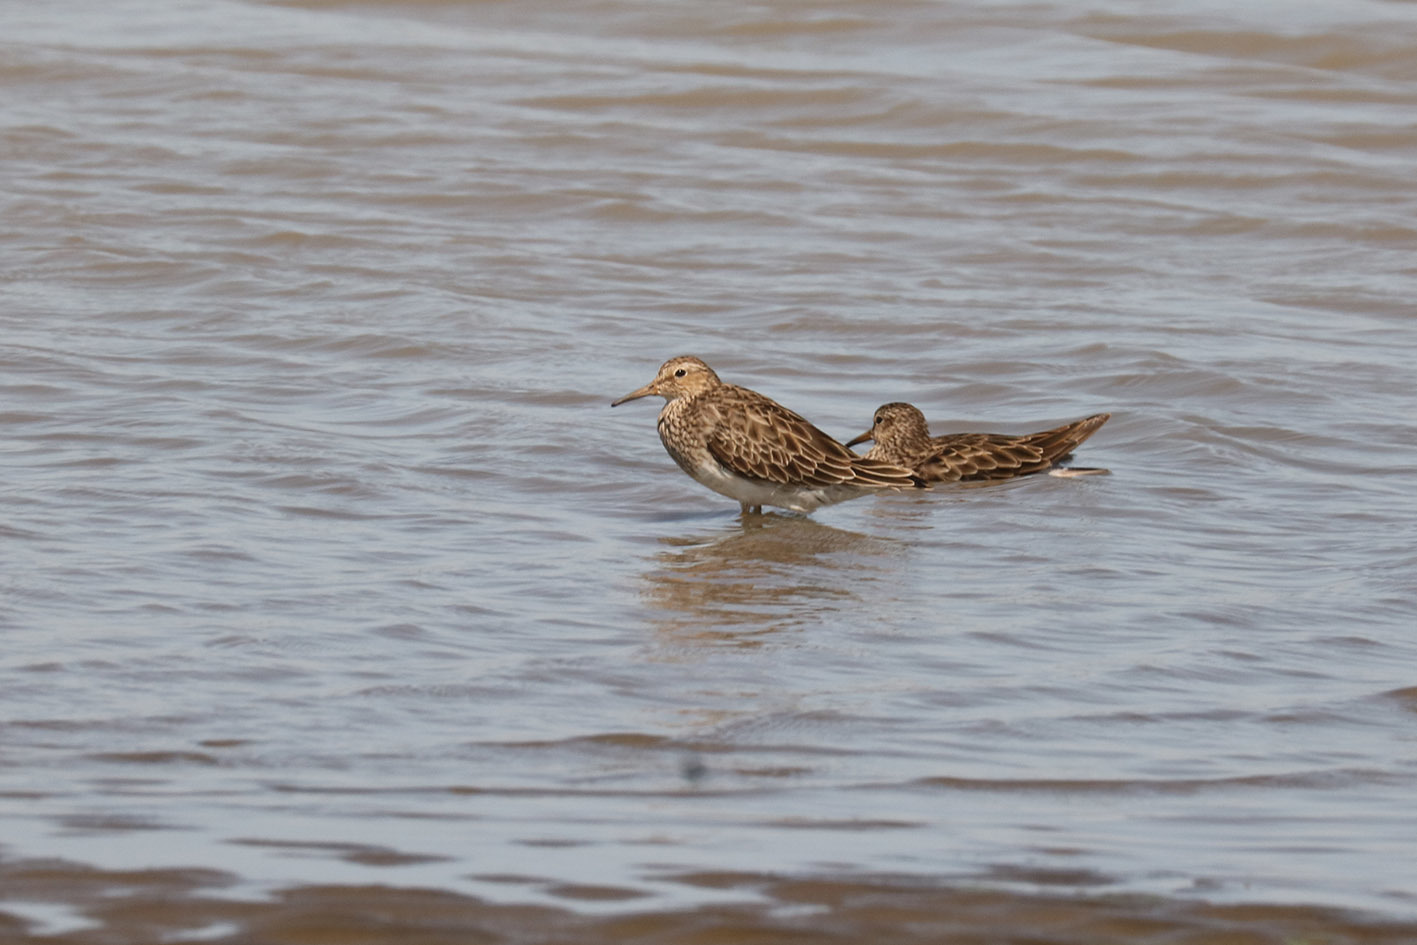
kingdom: Animalia
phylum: Chordata
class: Aves
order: Charadriiformes
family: Scolopacidae
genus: Calidris
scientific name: Calidris melanotos
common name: Pectoral sandpiper
